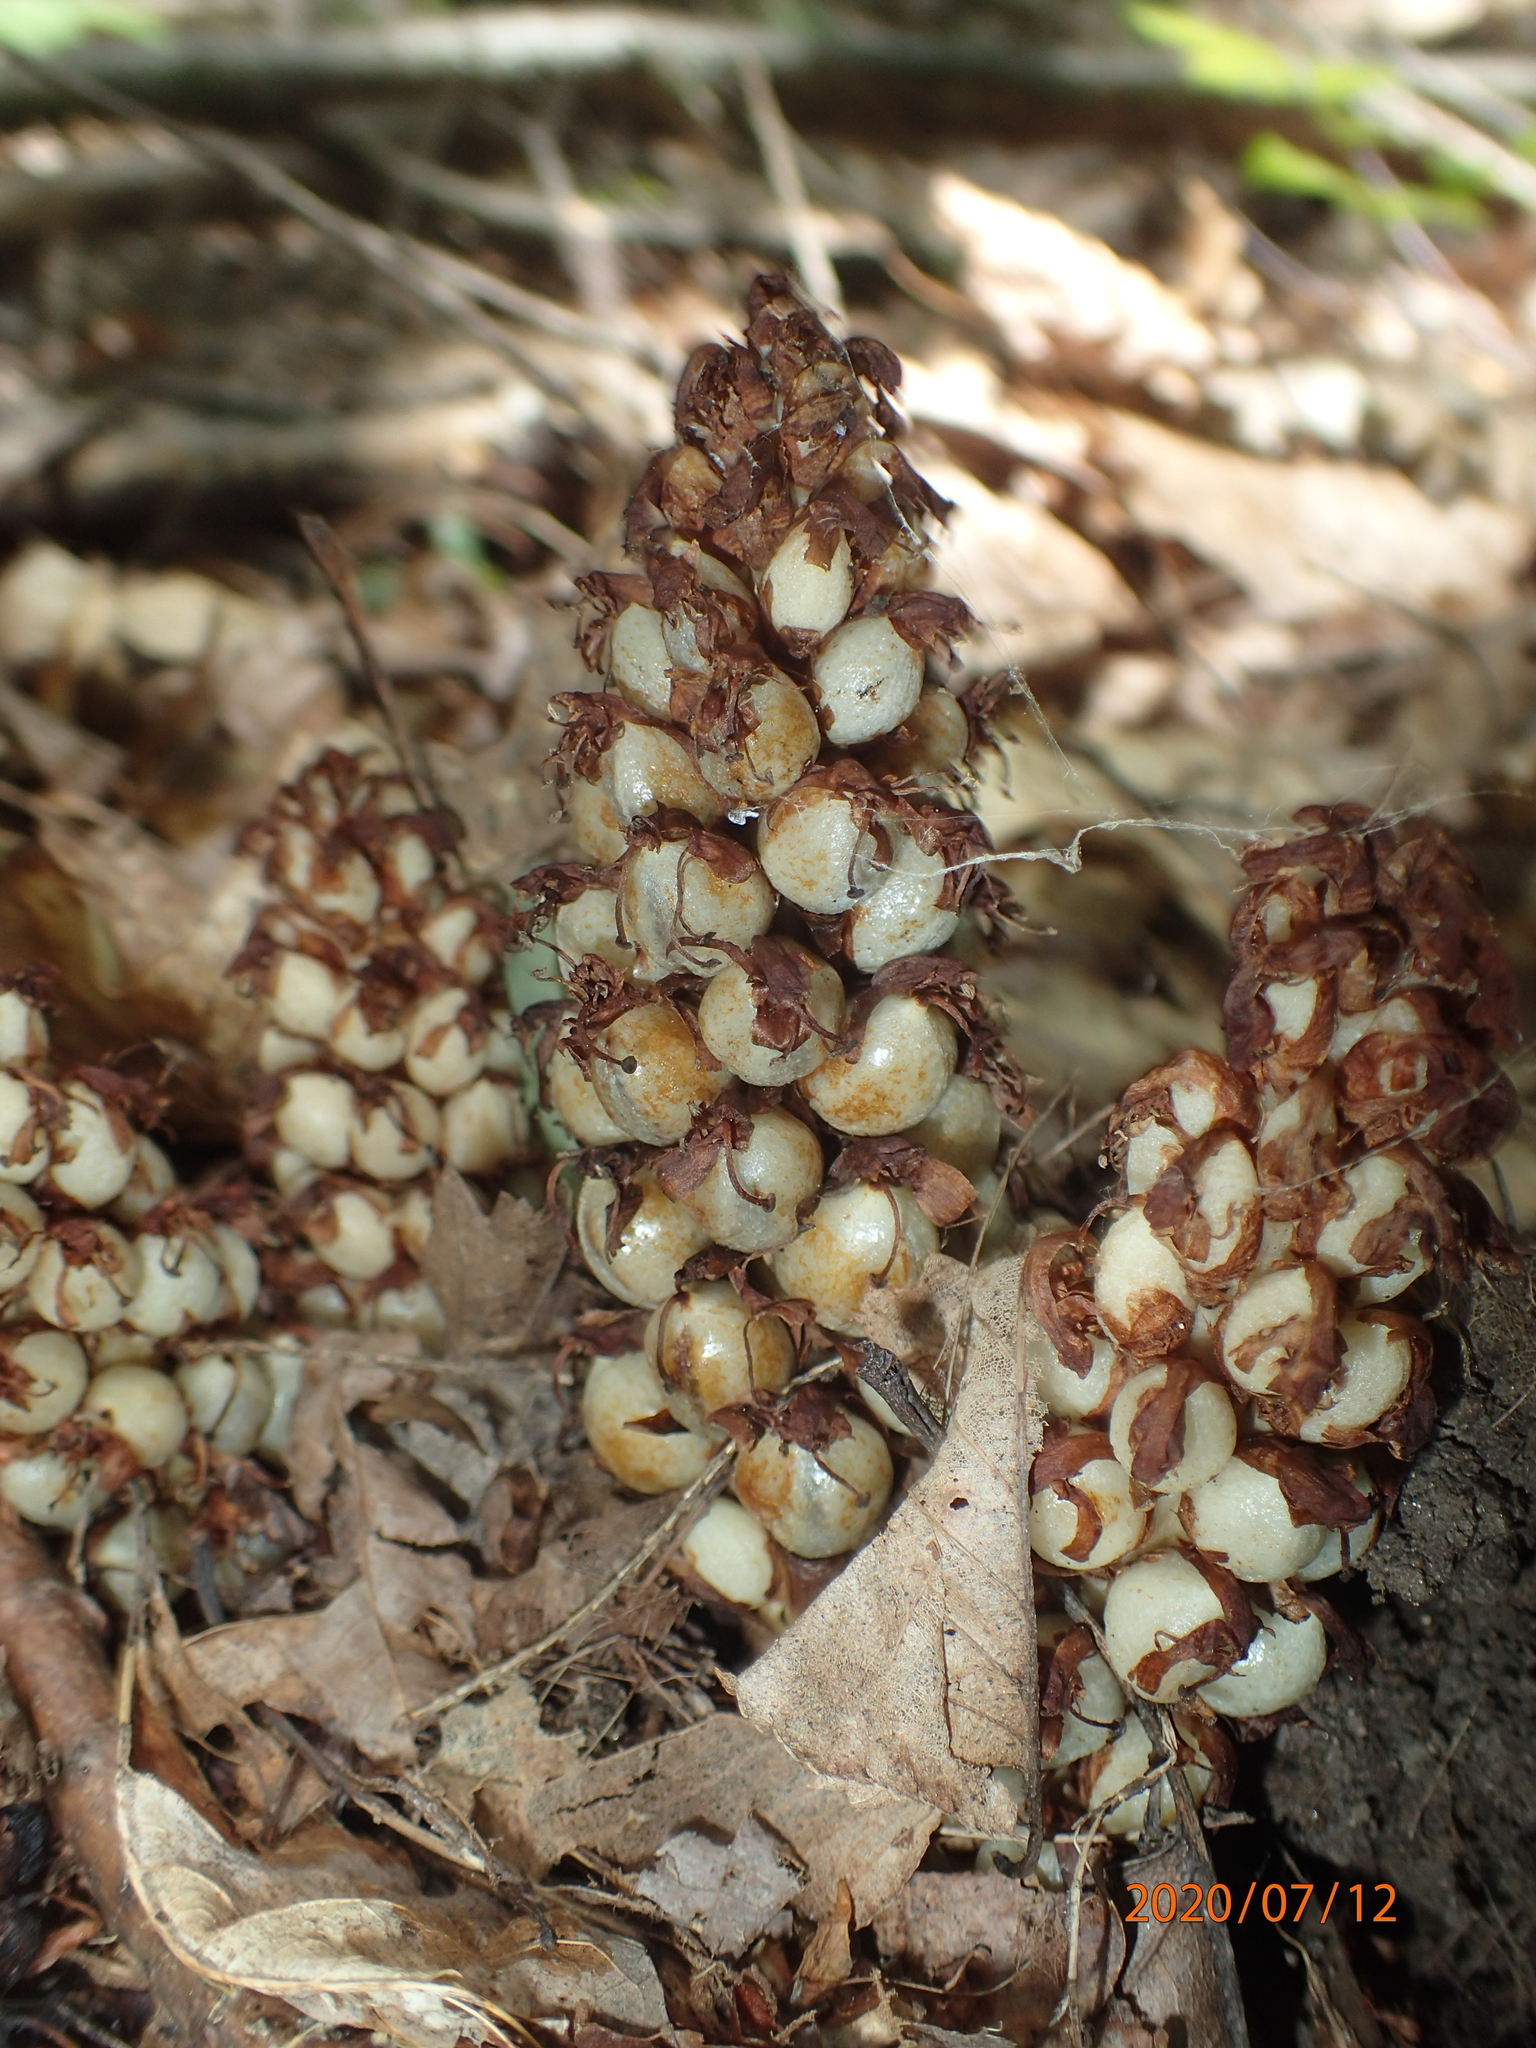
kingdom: Plantae
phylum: Tracheophyta
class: Magnoliopsida
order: Lamiales
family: Orobanchaceae
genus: Conopholis
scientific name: Conopholis americana
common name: American cancer-root
